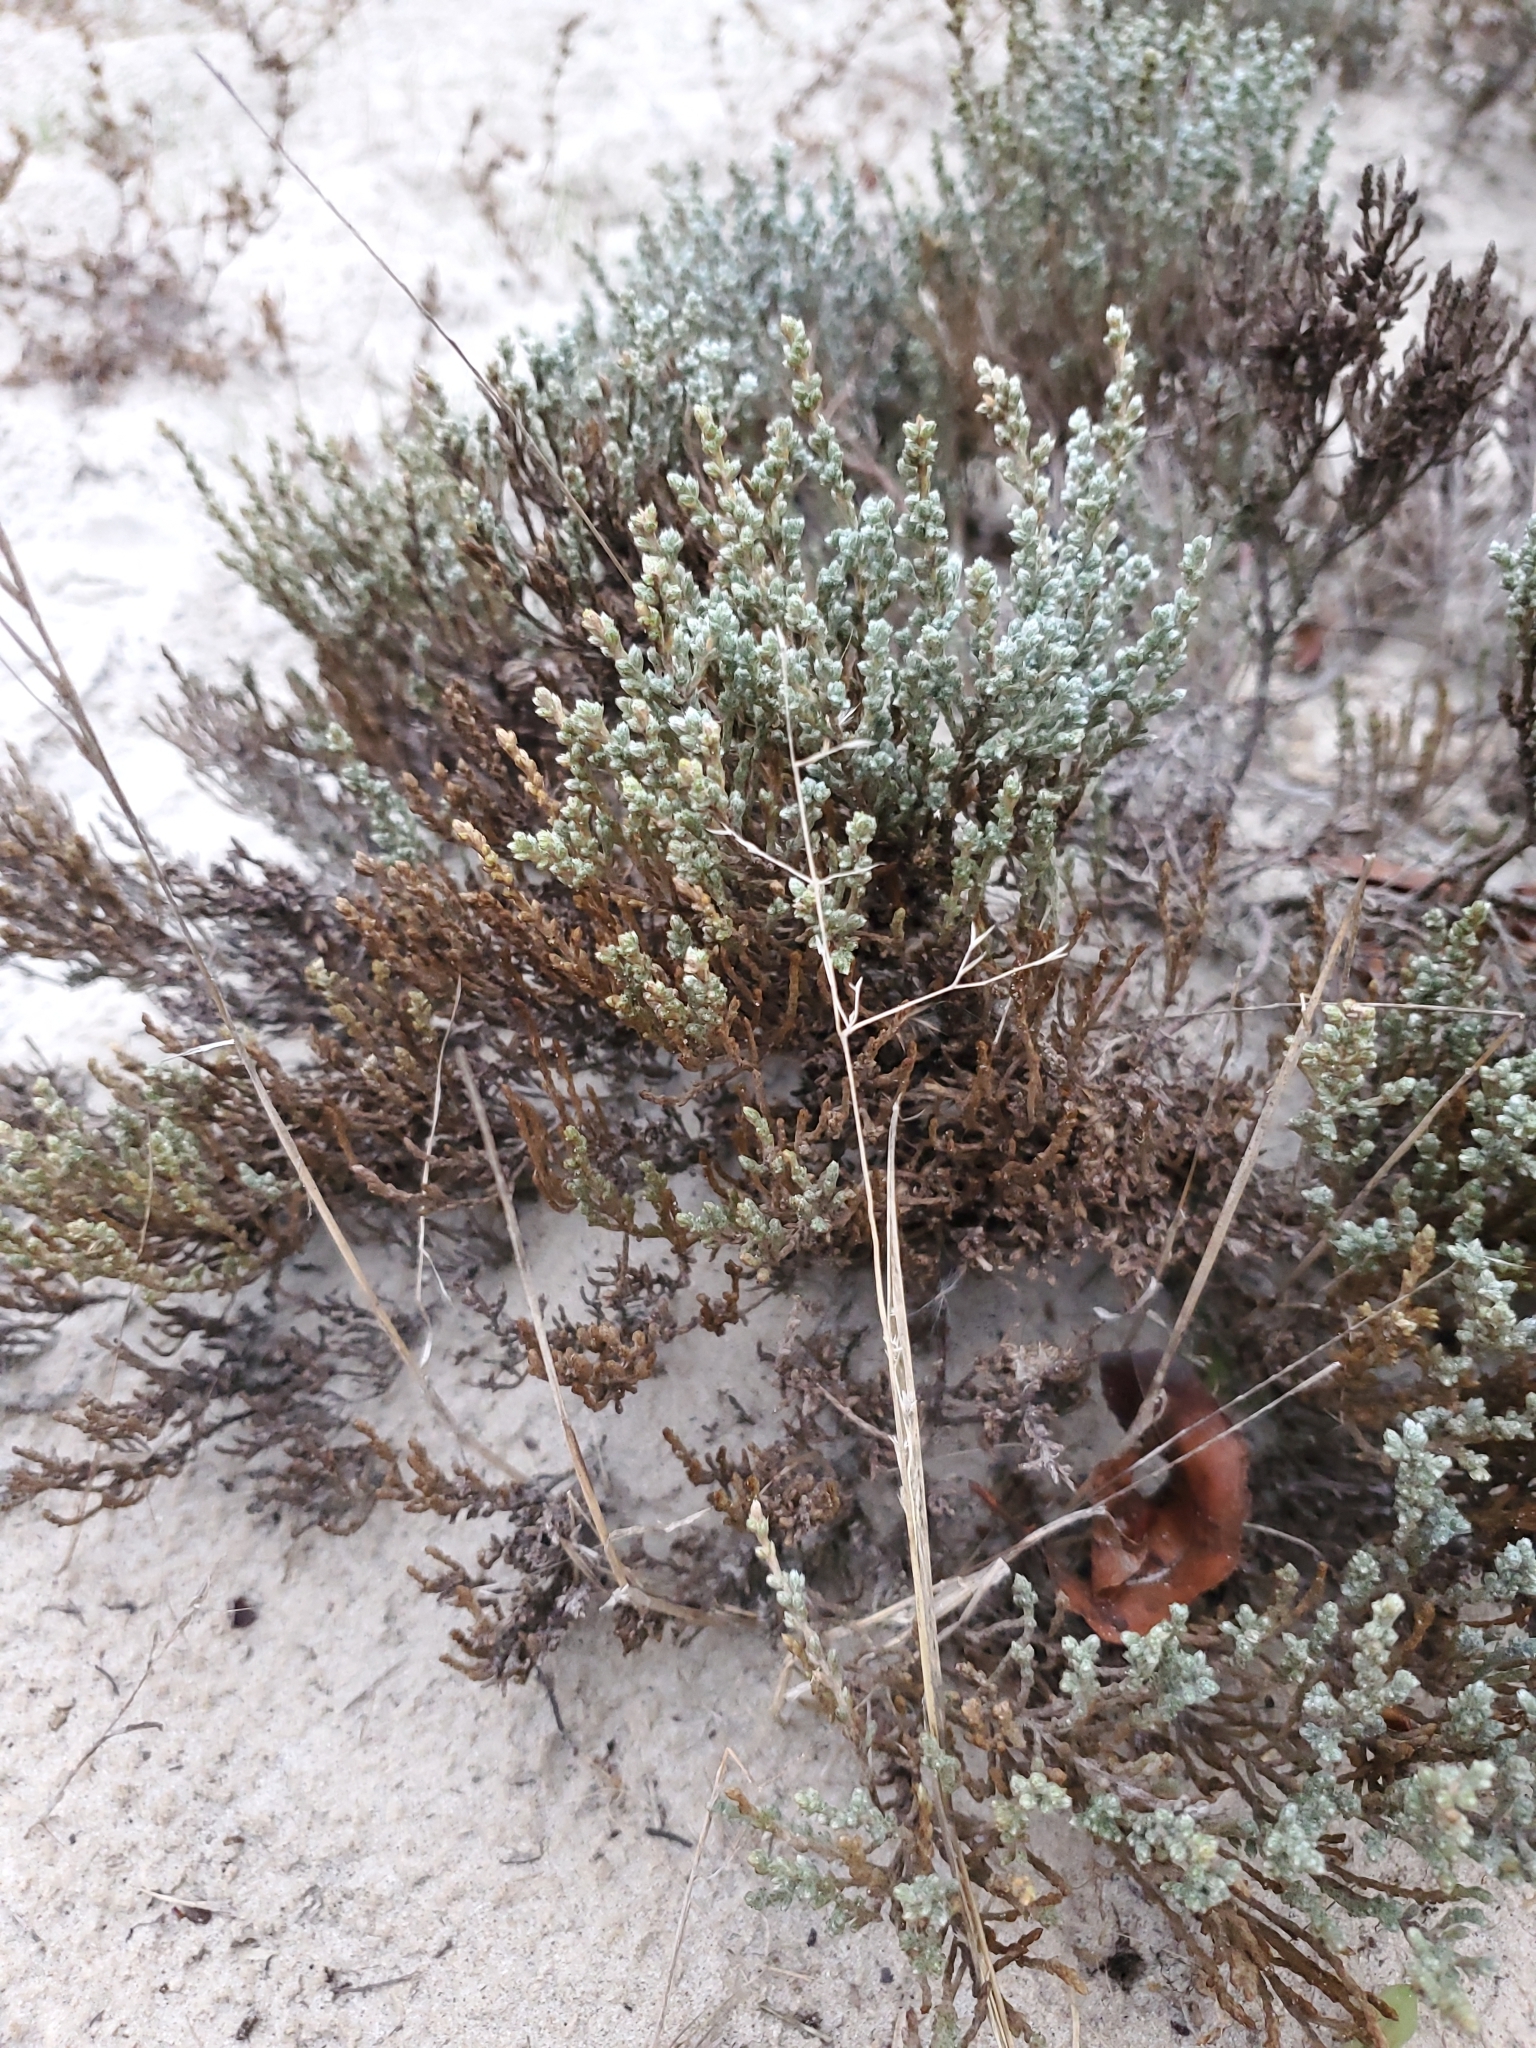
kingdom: Plantae
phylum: Tracheophyta
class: Magnoliopsida
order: Malvales
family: Cistaceae
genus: Hudsonia
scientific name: Hudsonia tomentosa
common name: Beach-heath
